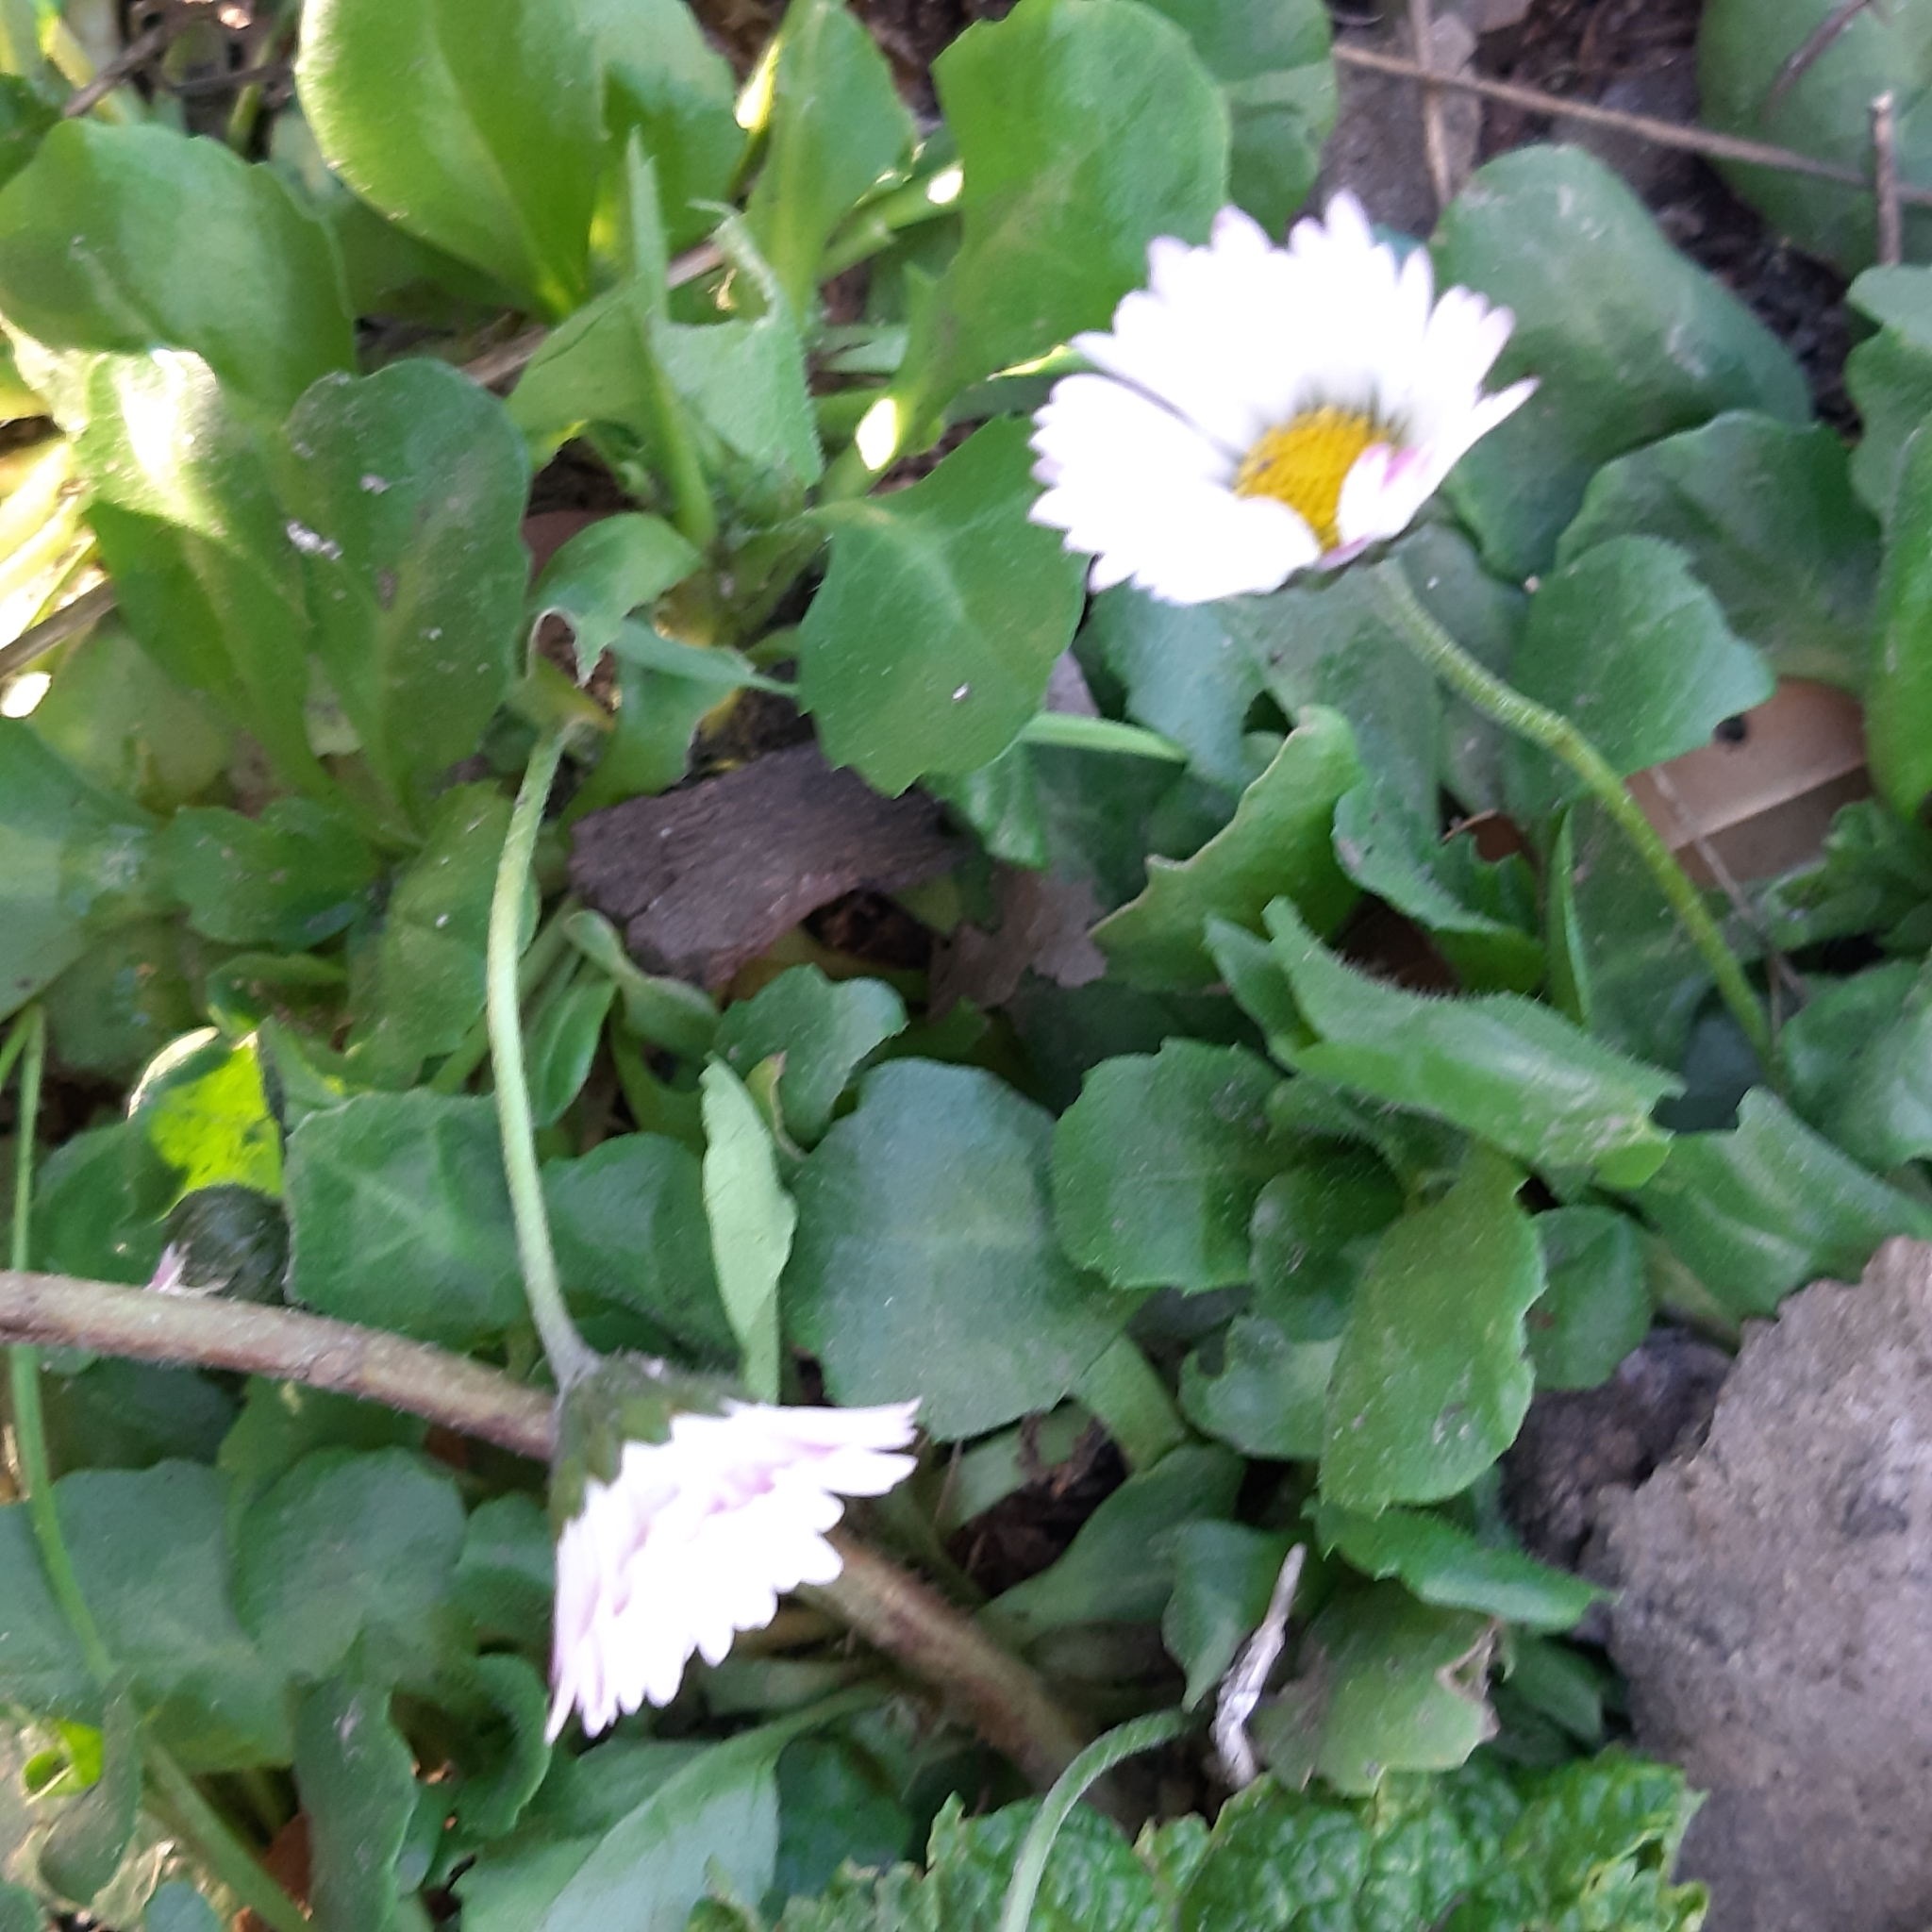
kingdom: Plantae
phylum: Tracheophyta
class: Magnoliopsida
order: Asterales
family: Asteraceae
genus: Bellis
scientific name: Bellis perennis
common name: Lawndaisy
